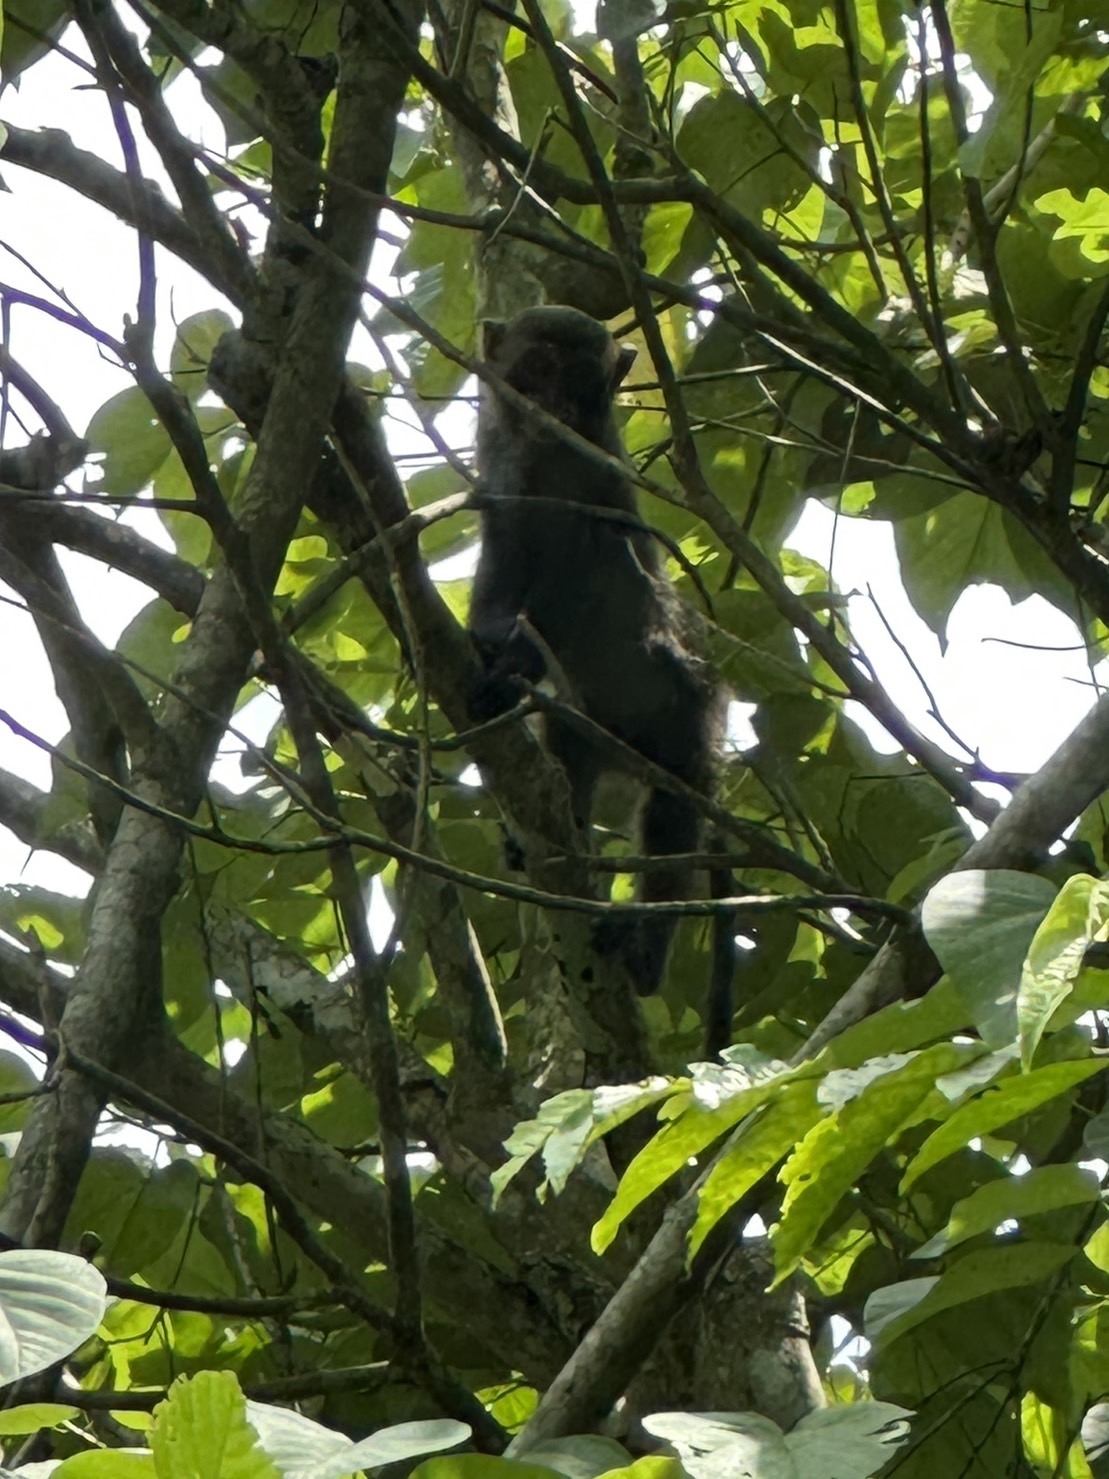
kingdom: Animalia
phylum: Chordata
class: Mammalia
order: Primates
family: Cercopithecidae
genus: Macaca
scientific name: Macaca cyclopis
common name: Formosan rock macaque
